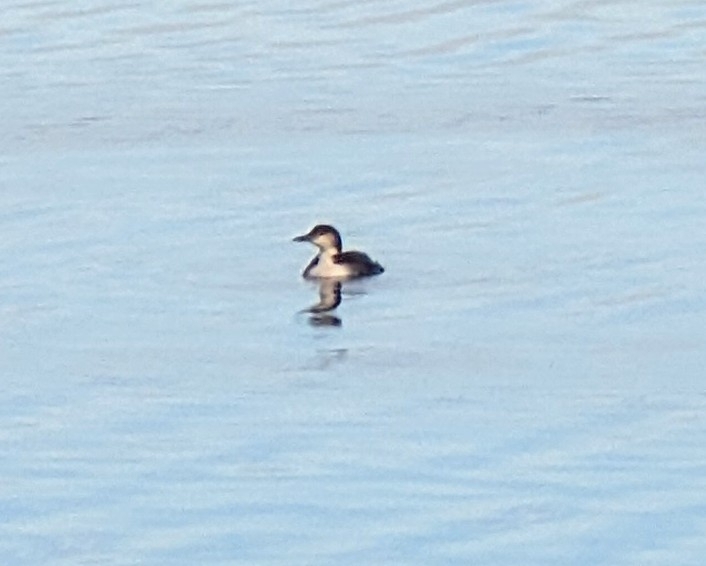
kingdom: Animalia
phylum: Chordata
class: Aves
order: Gaviiformes
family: Gaviidae
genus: Gavia
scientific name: Gavia immer
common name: Common loon
